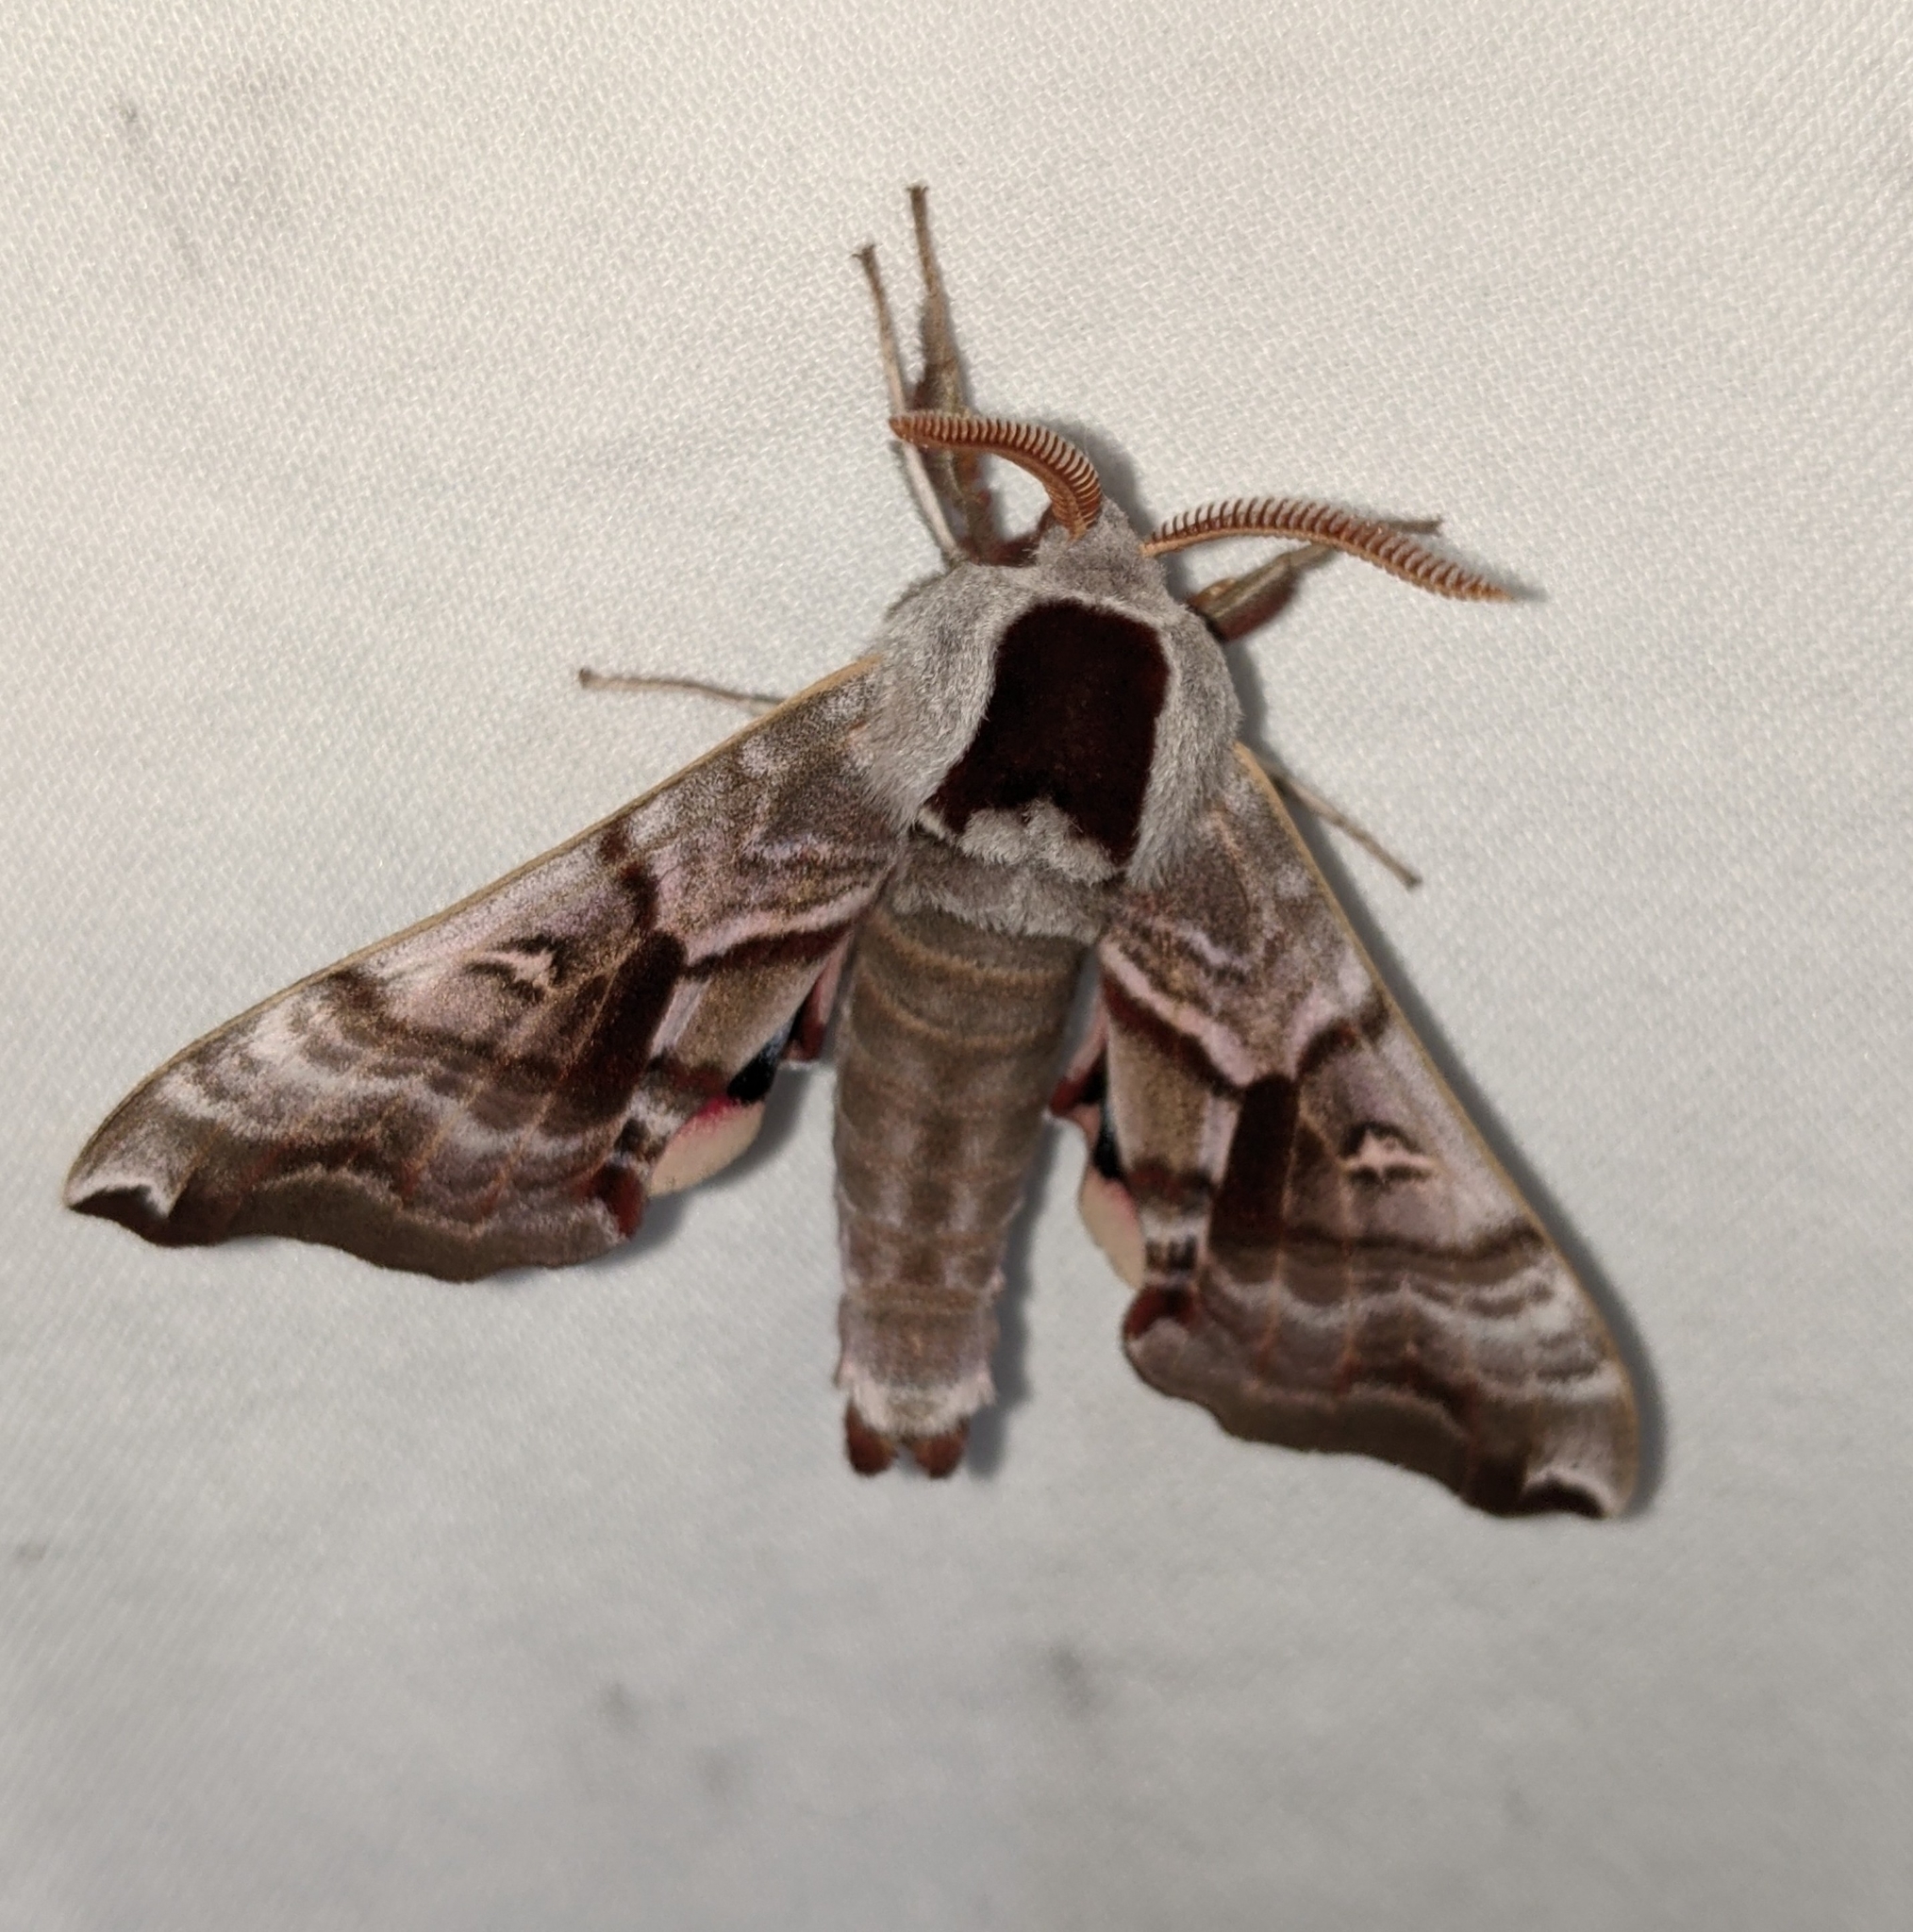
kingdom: Animalia
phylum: Arthropoda
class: Insecta
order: Lepidoptera
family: Sphingidae
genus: Smerinthus
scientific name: Smerinthus jamaicensis
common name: Twin spotted sphinx
